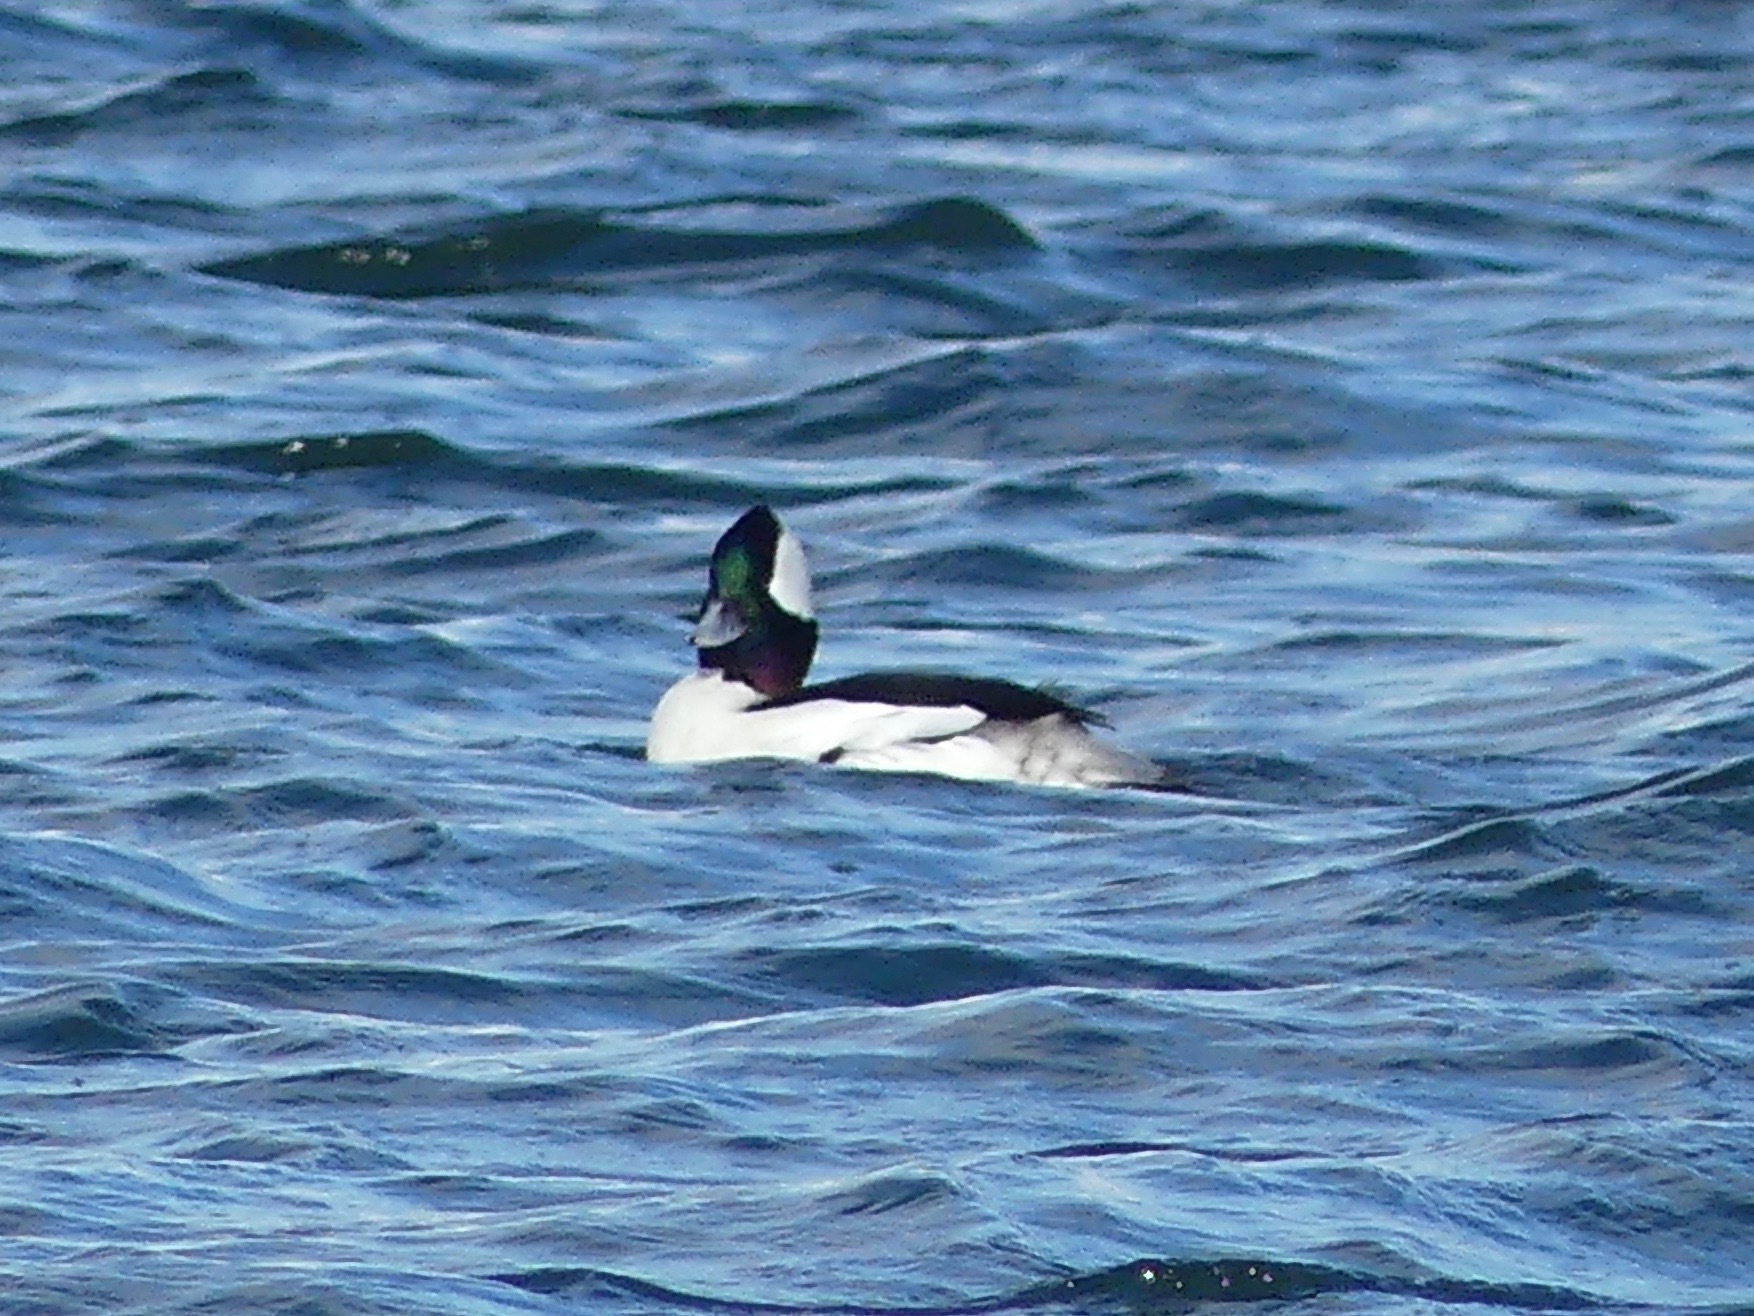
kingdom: Animalia
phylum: Chordata
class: Aves
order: Anseriformes
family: Anatidae
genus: Bucephala
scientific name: Bucephala albeola
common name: Bufflehead
